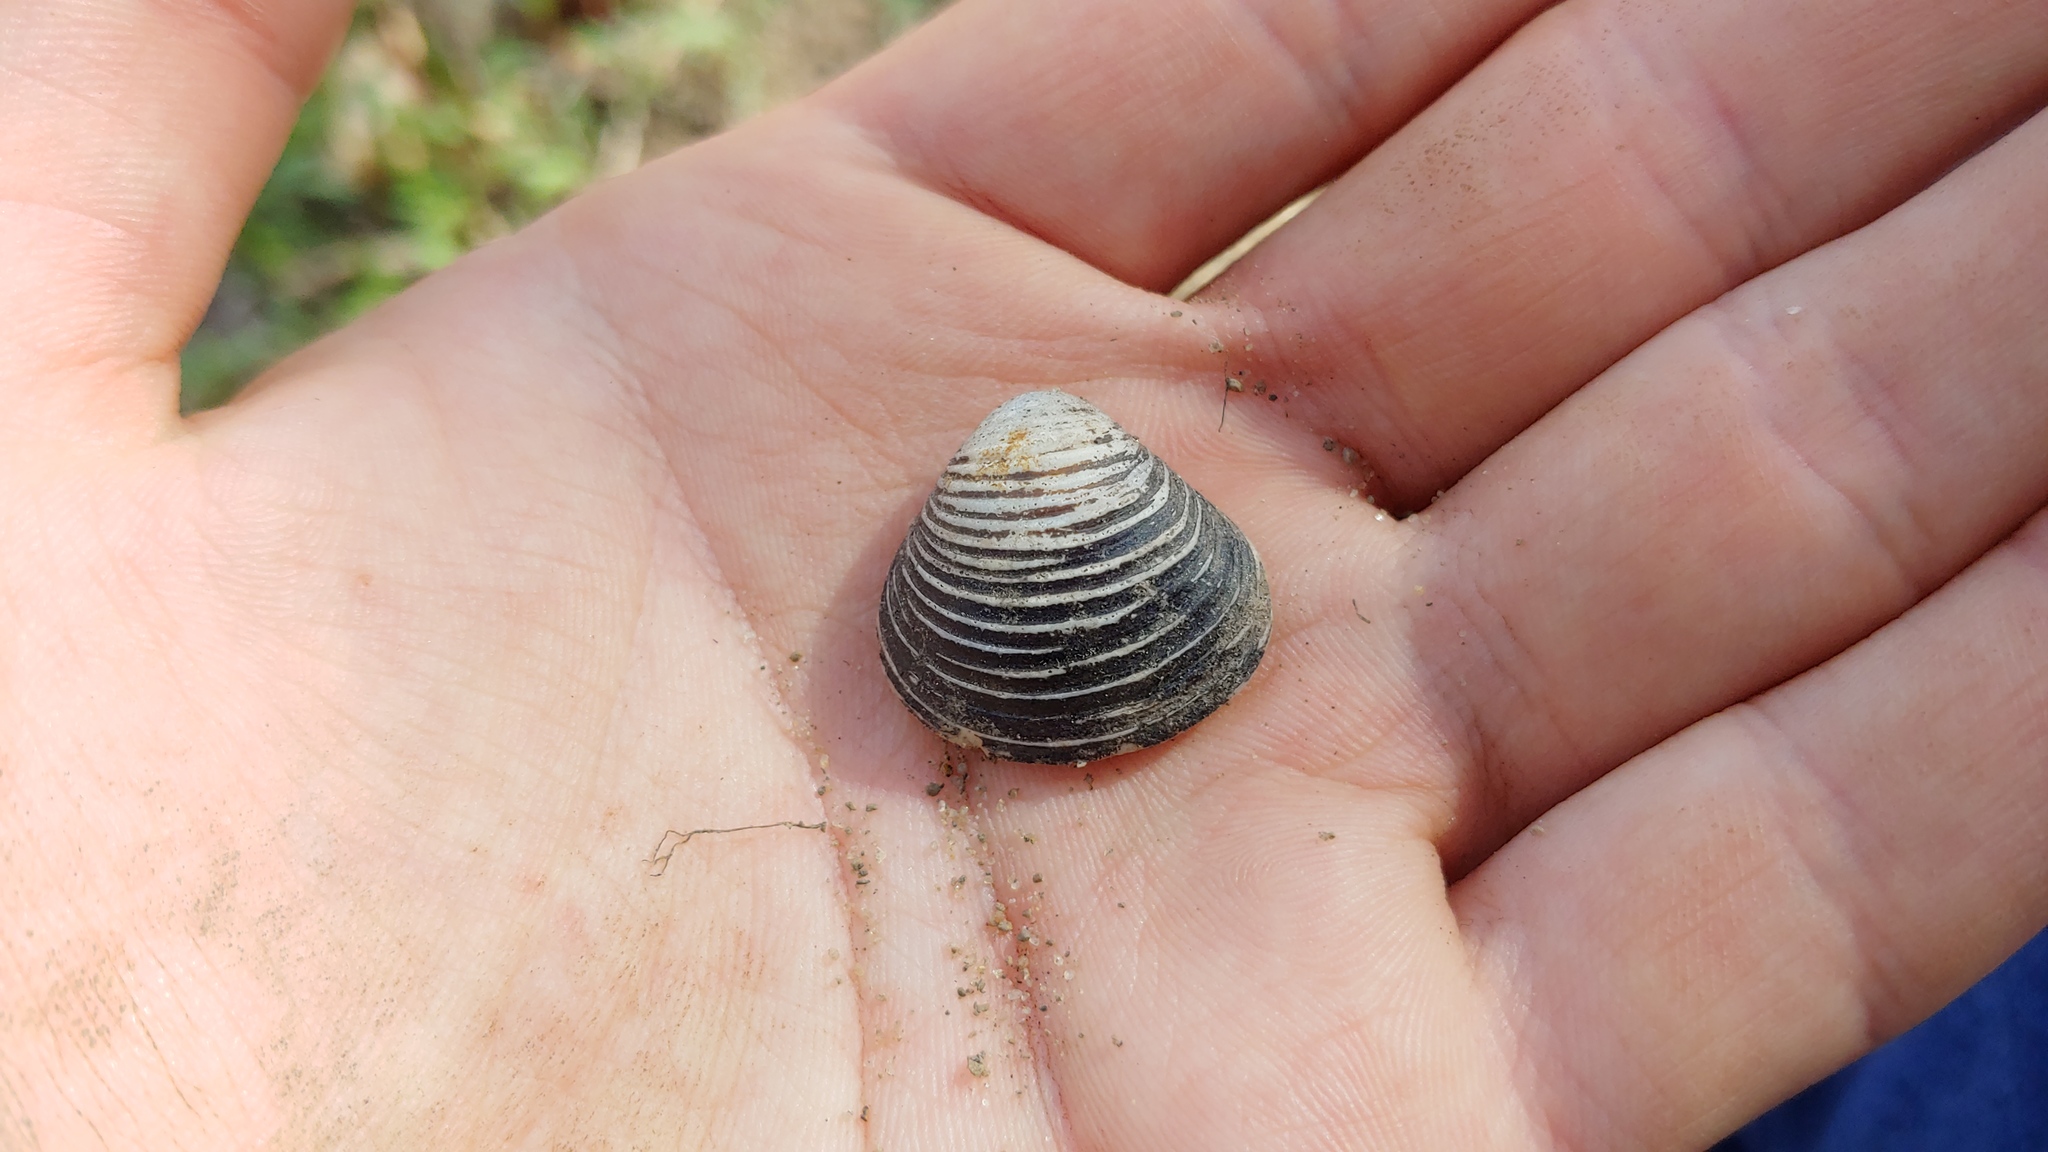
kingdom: Animalia
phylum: Mollusca
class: Bivalvia
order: Venerida
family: Cyrenidae
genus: Corbicula
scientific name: Corbicula fluminea
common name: Asian clam
